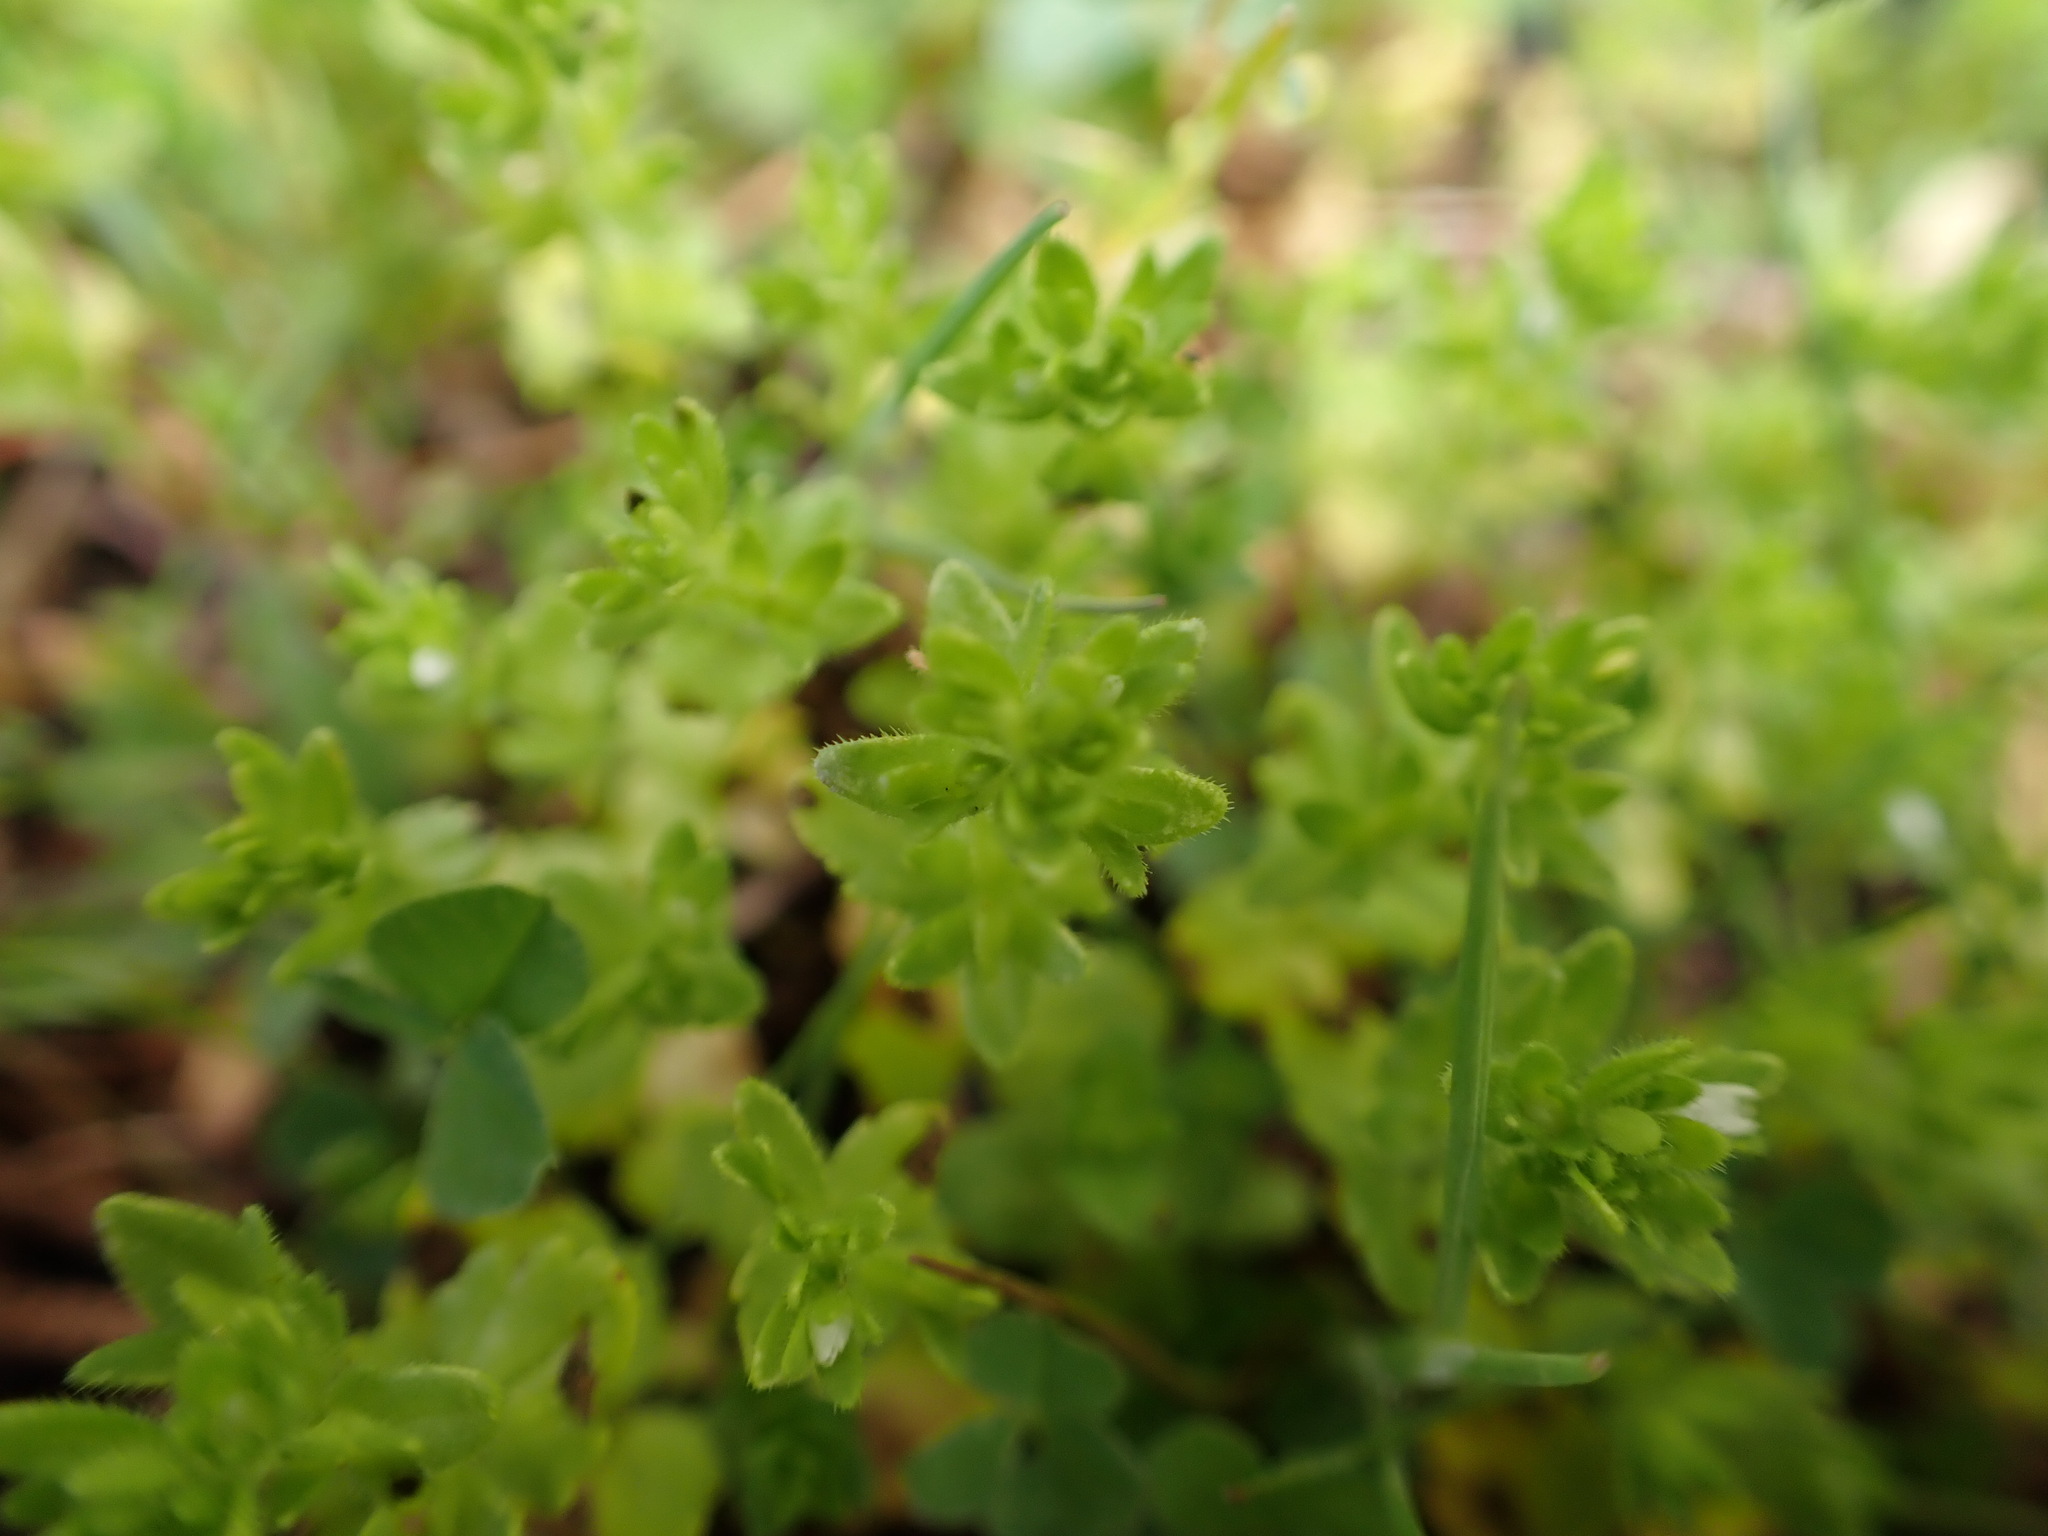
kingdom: Plantae
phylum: Tracheophyta
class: Magnoliopsida
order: Lamiales
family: Plantaginaceae
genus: Veronica
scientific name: Veronica arvensis
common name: Corn speedwell
